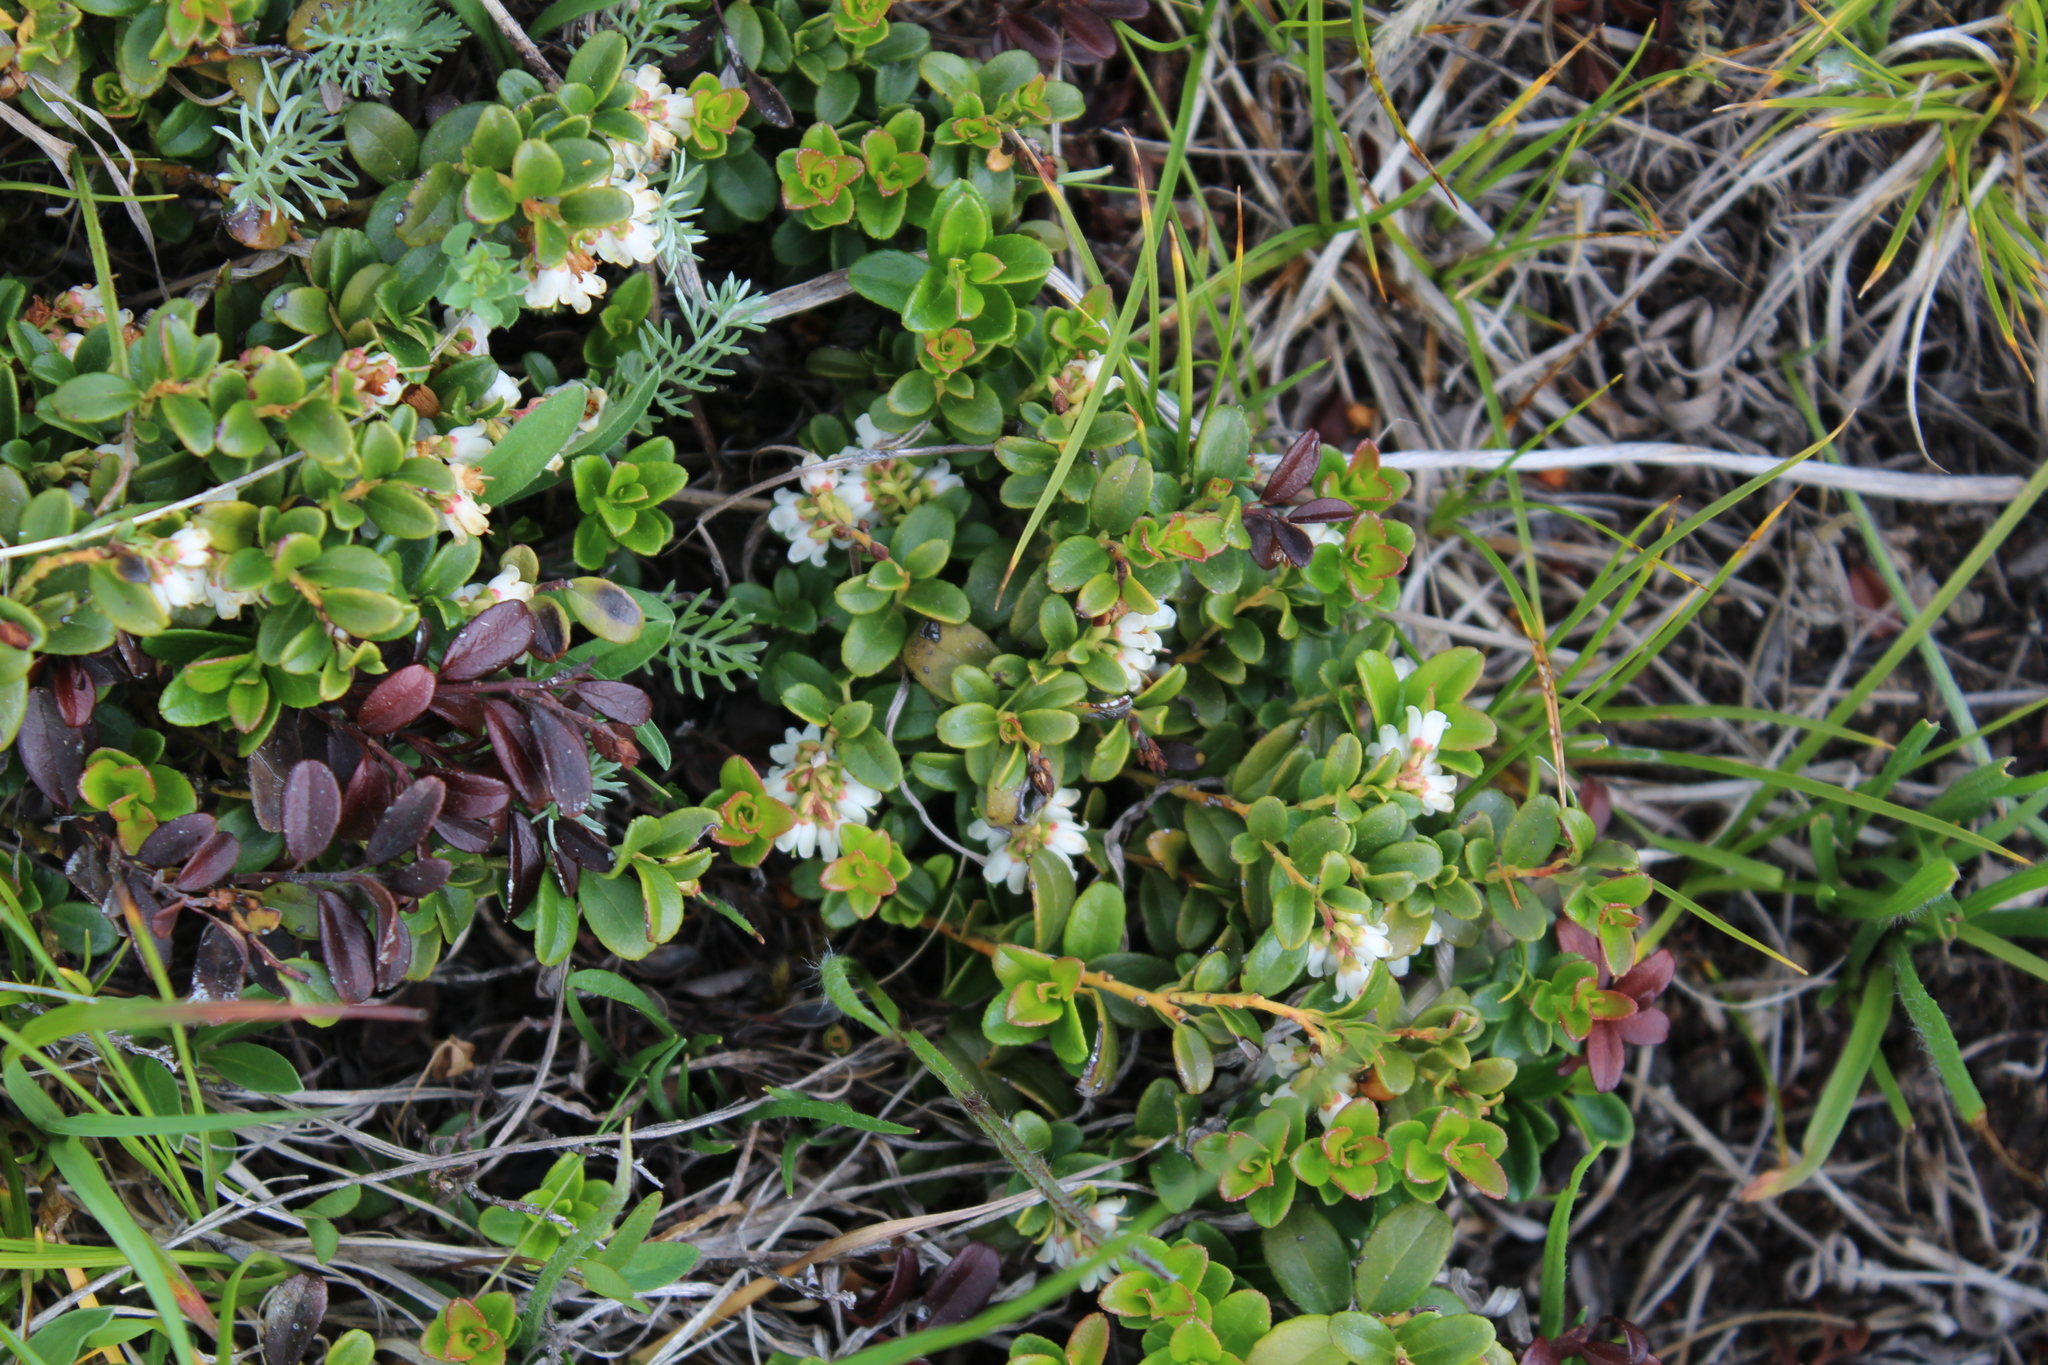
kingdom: Plantae
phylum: Tracheophyta
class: Magnoliopsida
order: Ericales
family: Ericaceae
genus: Vaccinium
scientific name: Vaccinium vitis-idaea
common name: Cowberry
